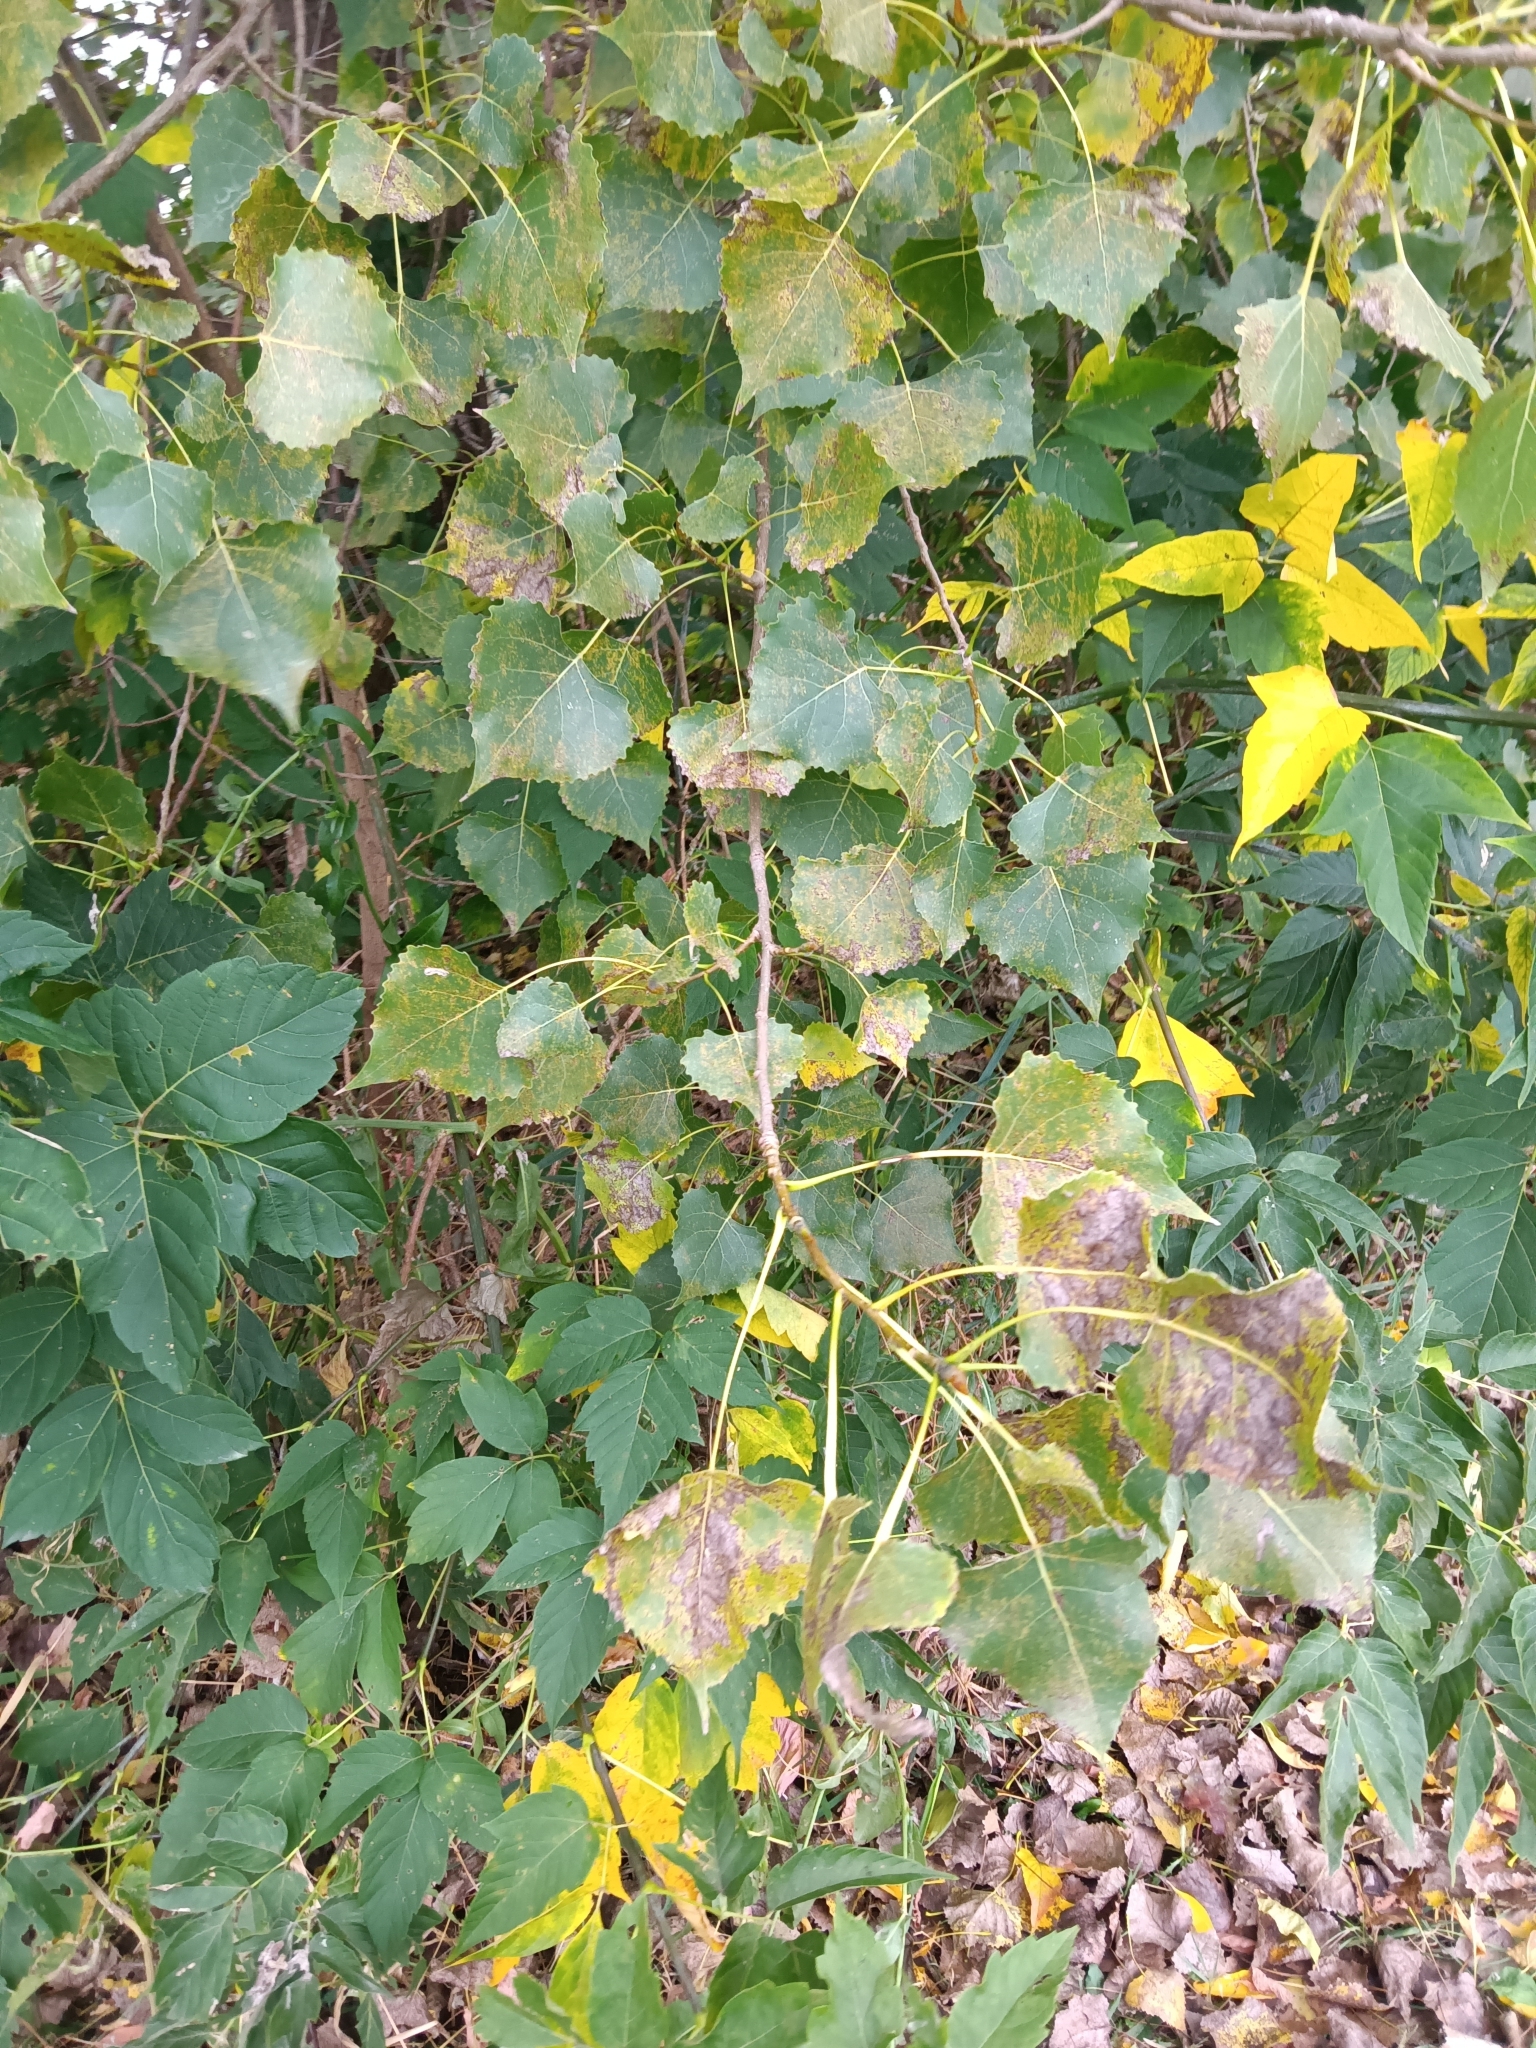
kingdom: Plantae
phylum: Tracheophyta
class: Magnoliopsida
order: Malpighiales
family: Salicaceae
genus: Populus
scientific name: Populus deltoides
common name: Eastern cottonwood
